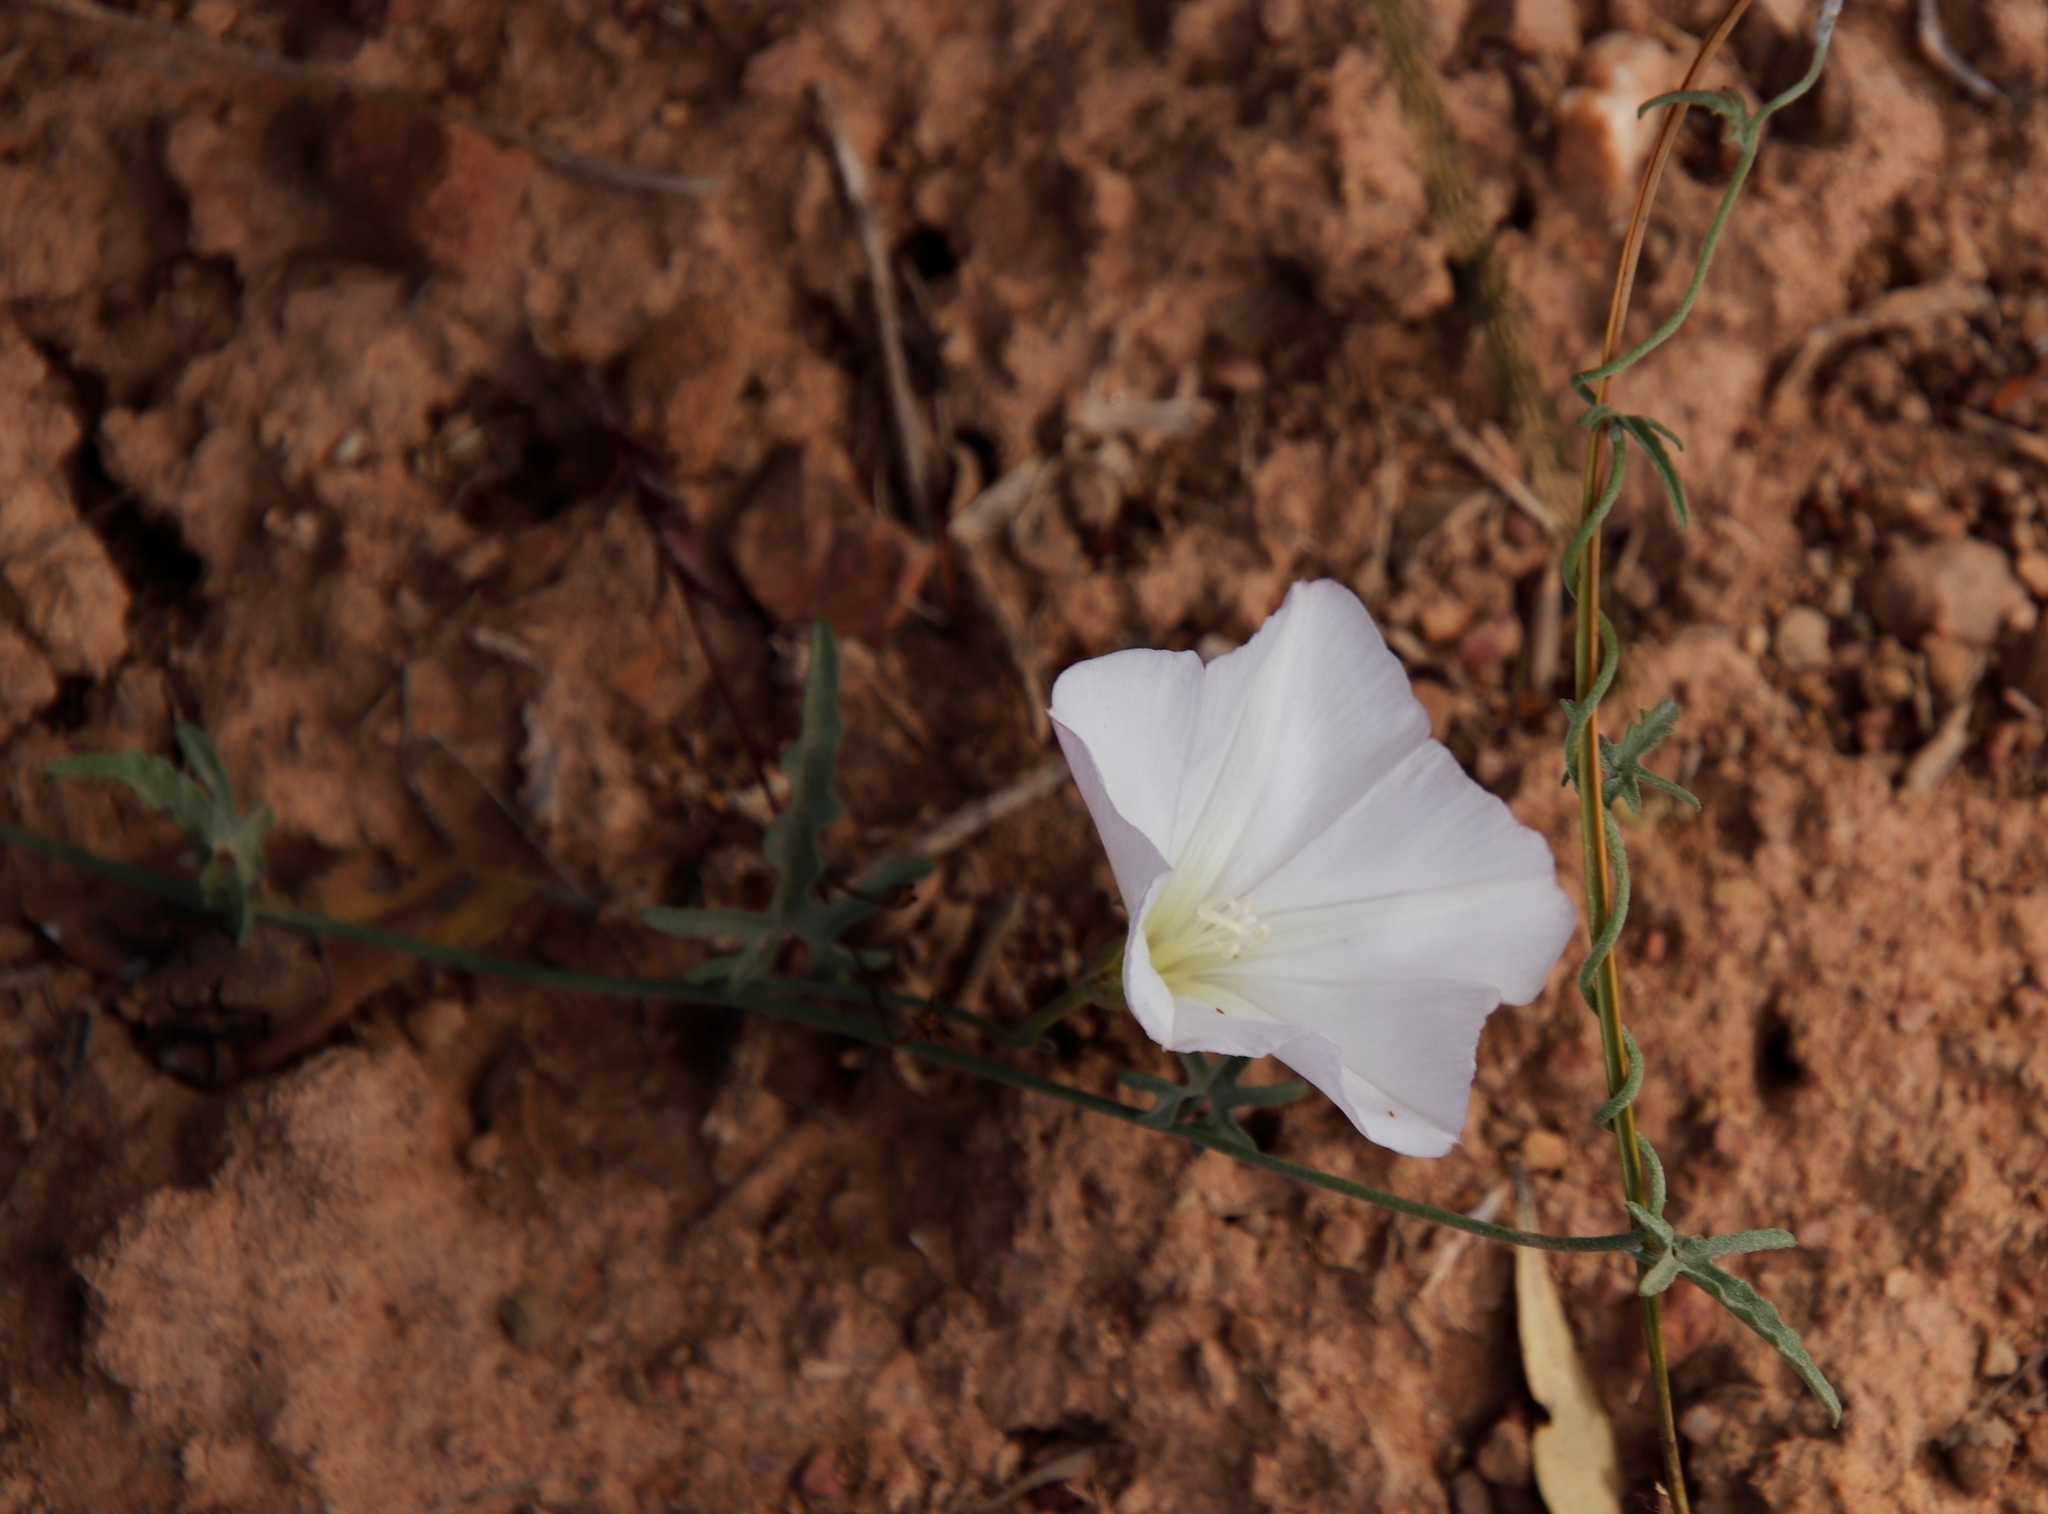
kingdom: Plantae
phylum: Tracheophyta
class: Magnoliopsida
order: Solanales
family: Convolvulaceae
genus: Convolvulus
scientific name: Convolvulus capensis
